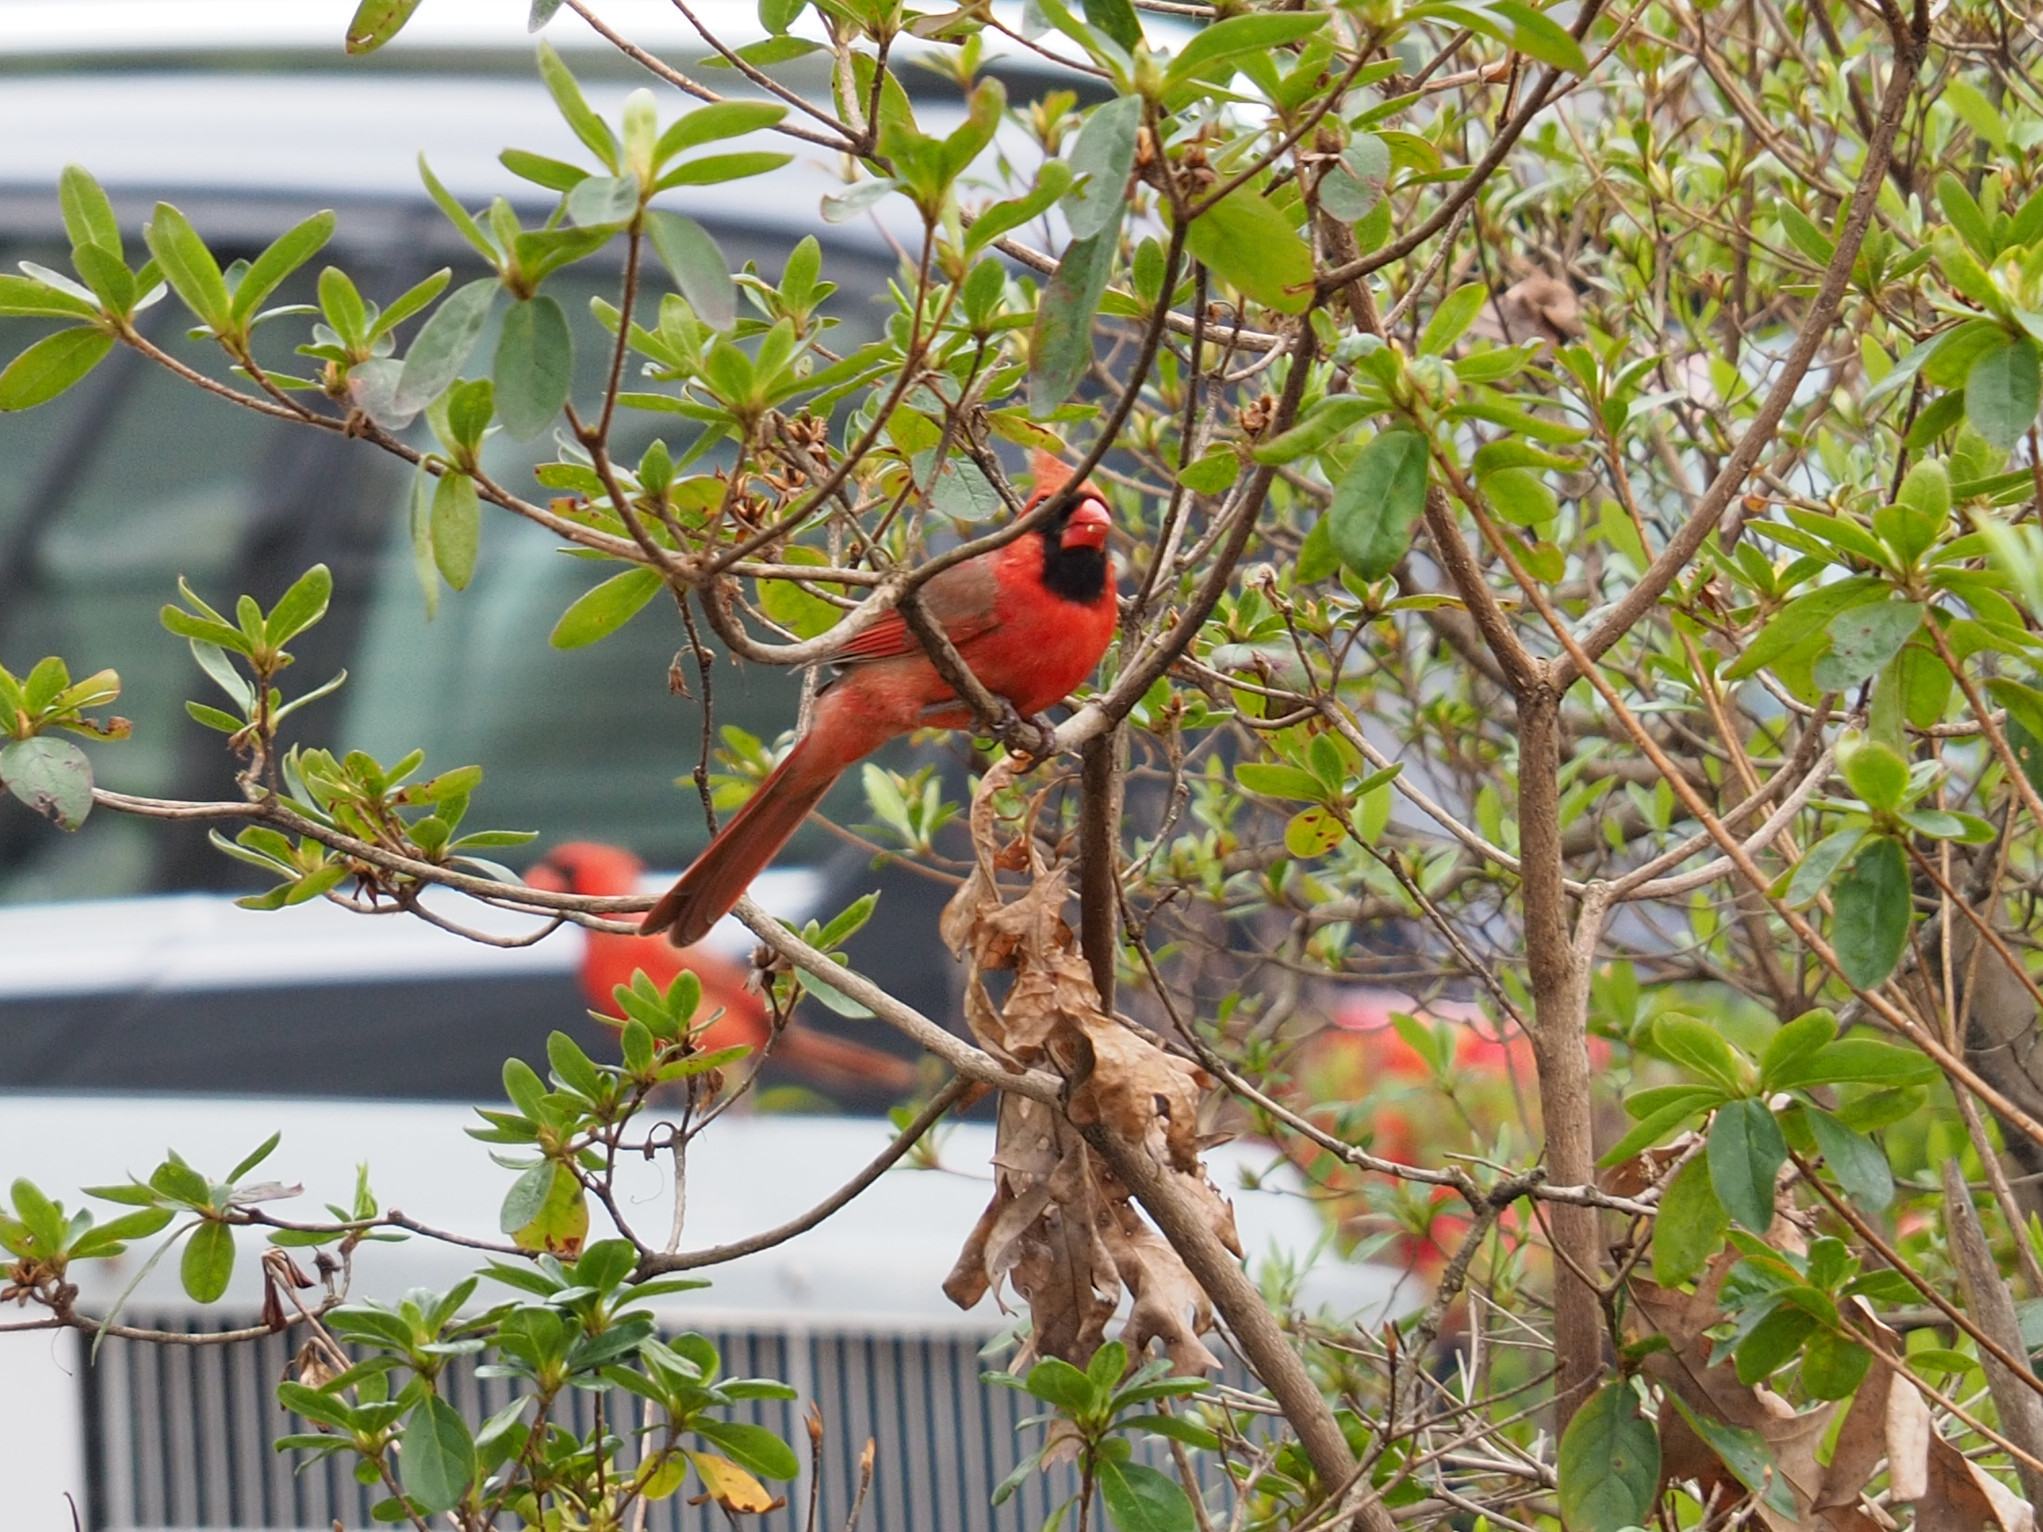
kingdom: Animalia
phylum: Chordata
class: Aves
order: Passeriformes
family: Cardinalidae
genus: Cardinalis
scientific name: Cardinalis cardinalis
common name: Northern cardinal
